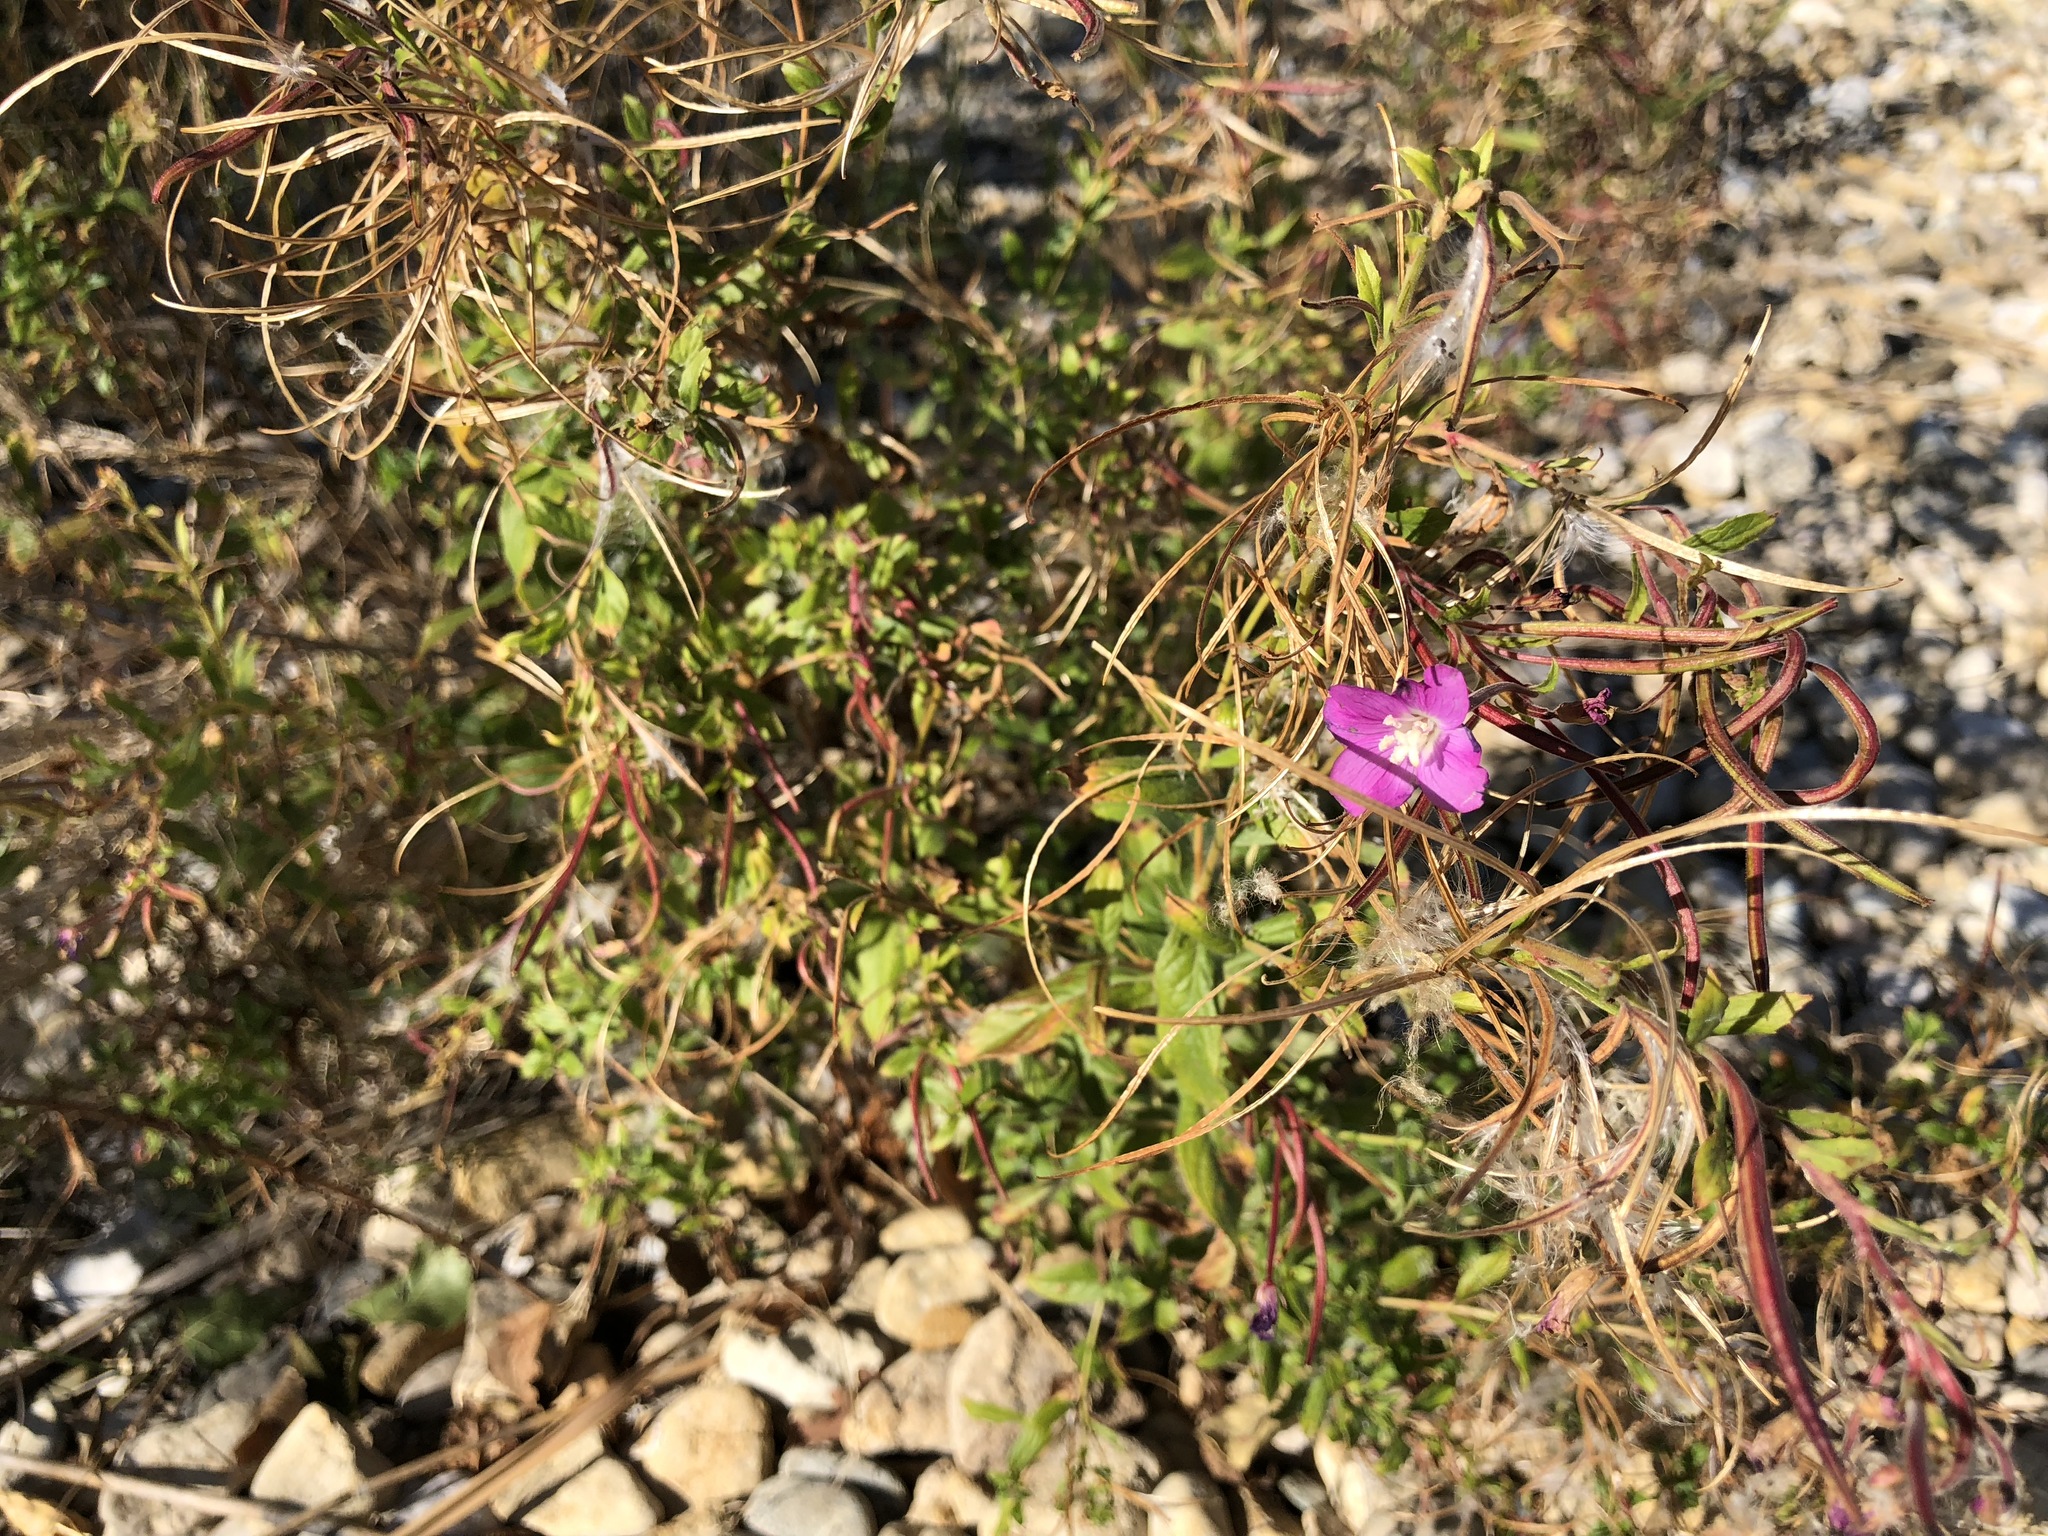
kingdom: Plantae
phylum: Tracheophyta
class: Magnoliopsida
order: Myrtales
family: Onagraceae
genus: Epilobium
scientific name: Epilobium hirsutum
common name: Great willowherb
